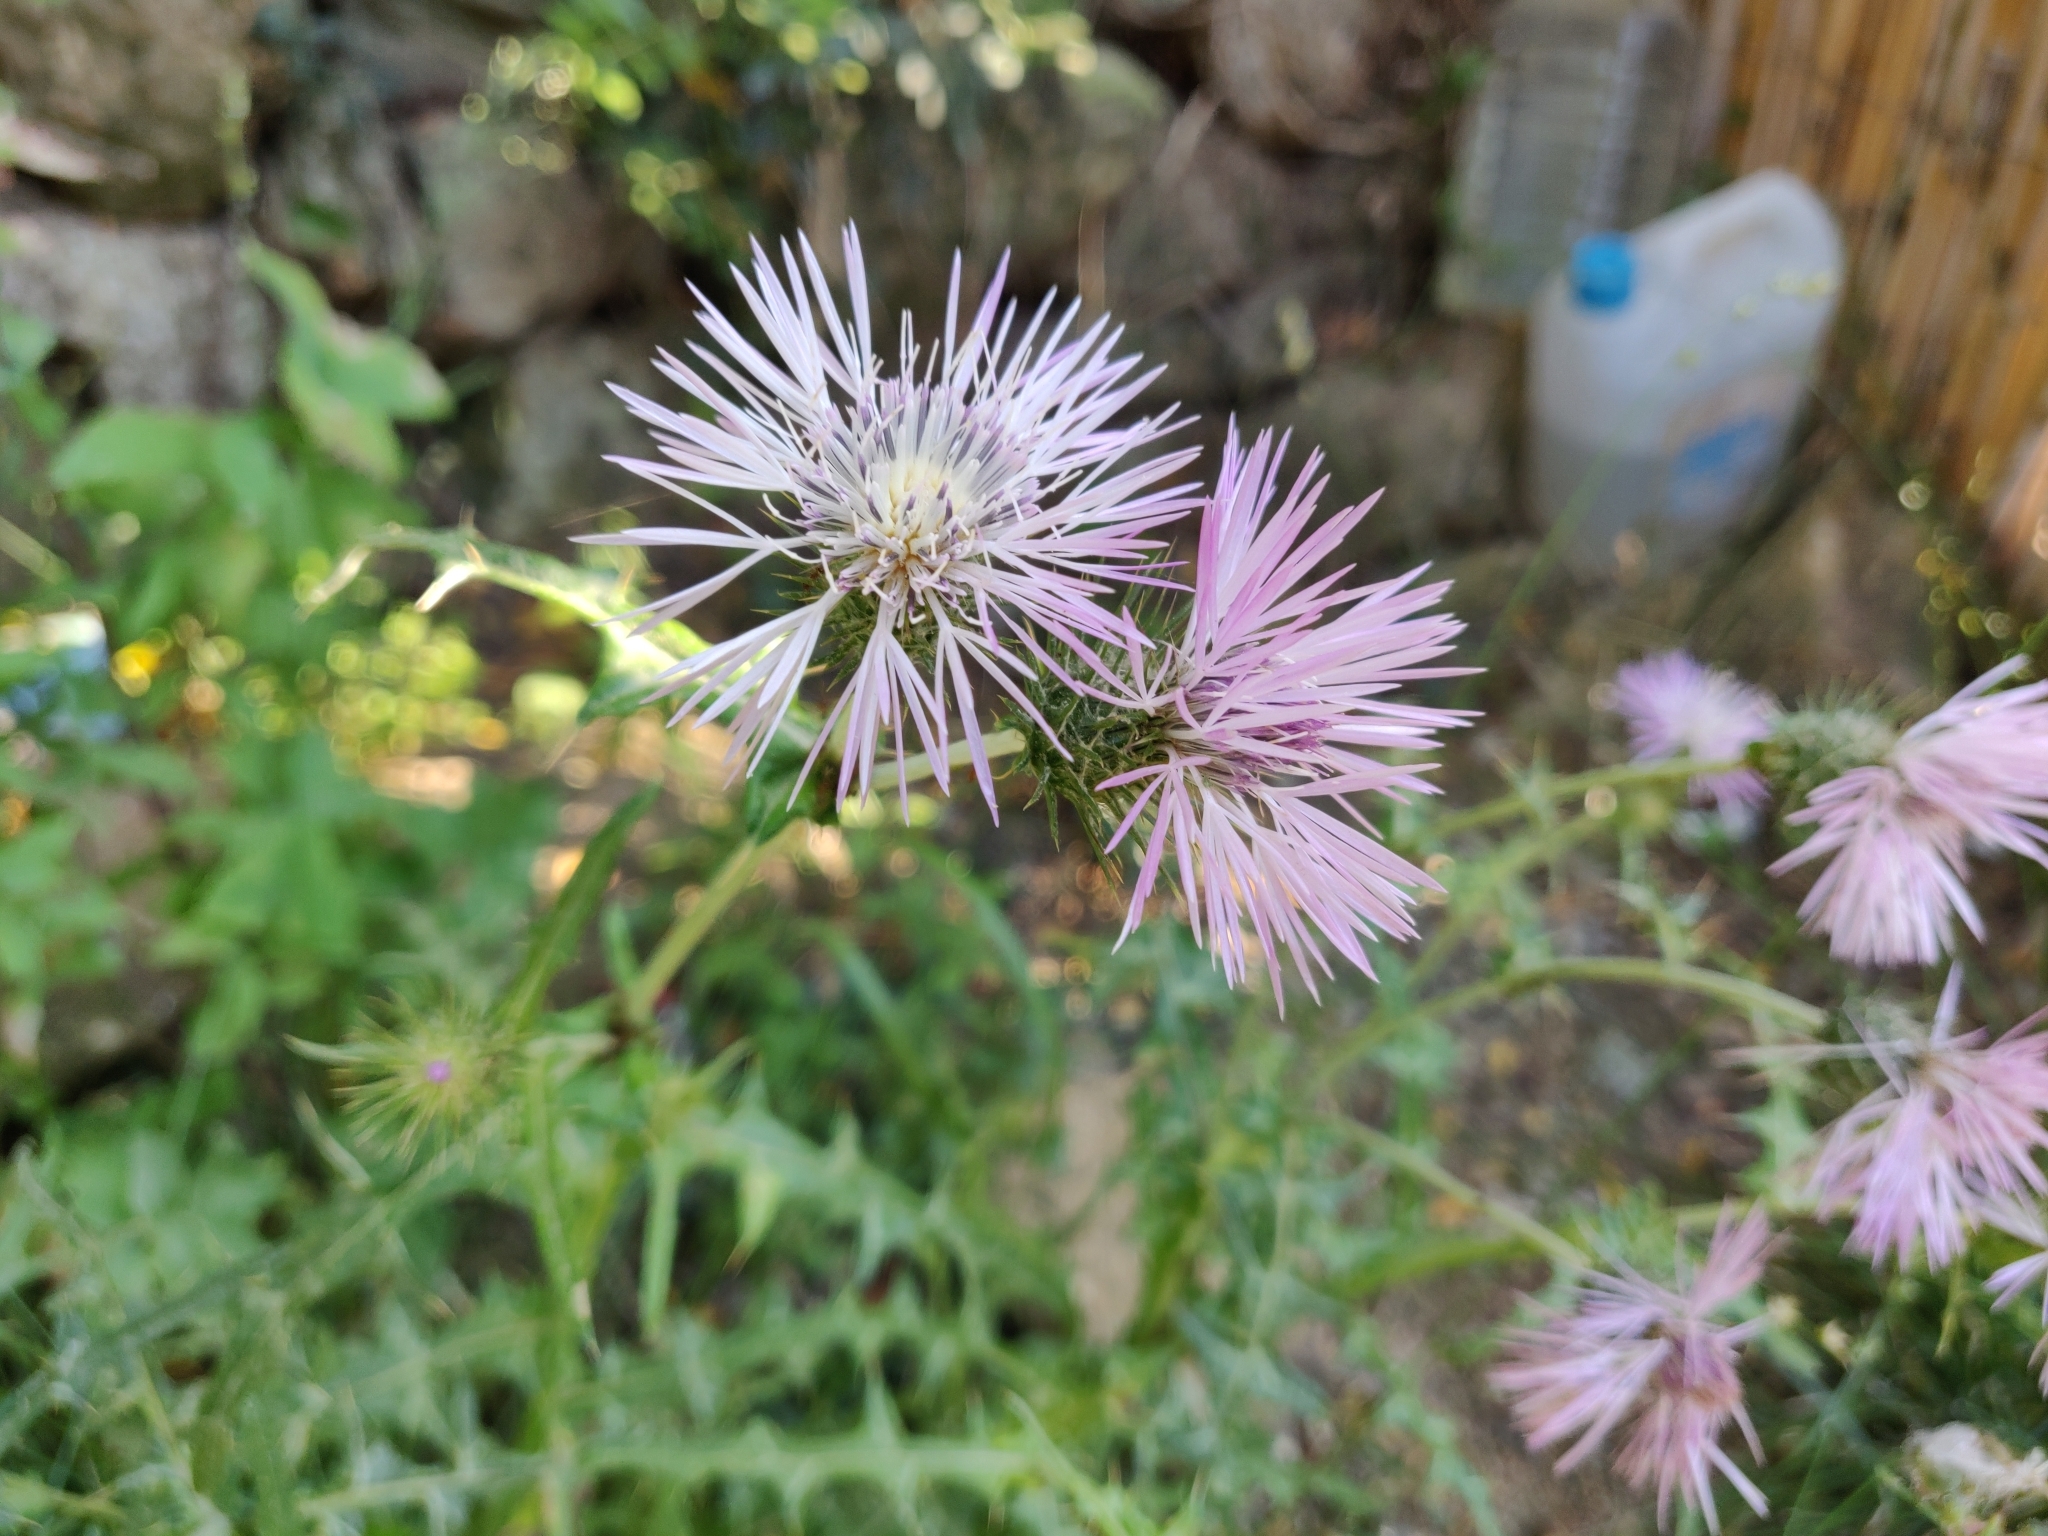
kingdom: Plantae
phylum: Tracheophyta
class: Magnoliopsida
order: Asterales
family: Asteraceae
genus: Galactites
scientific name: Galactites tomentosa
